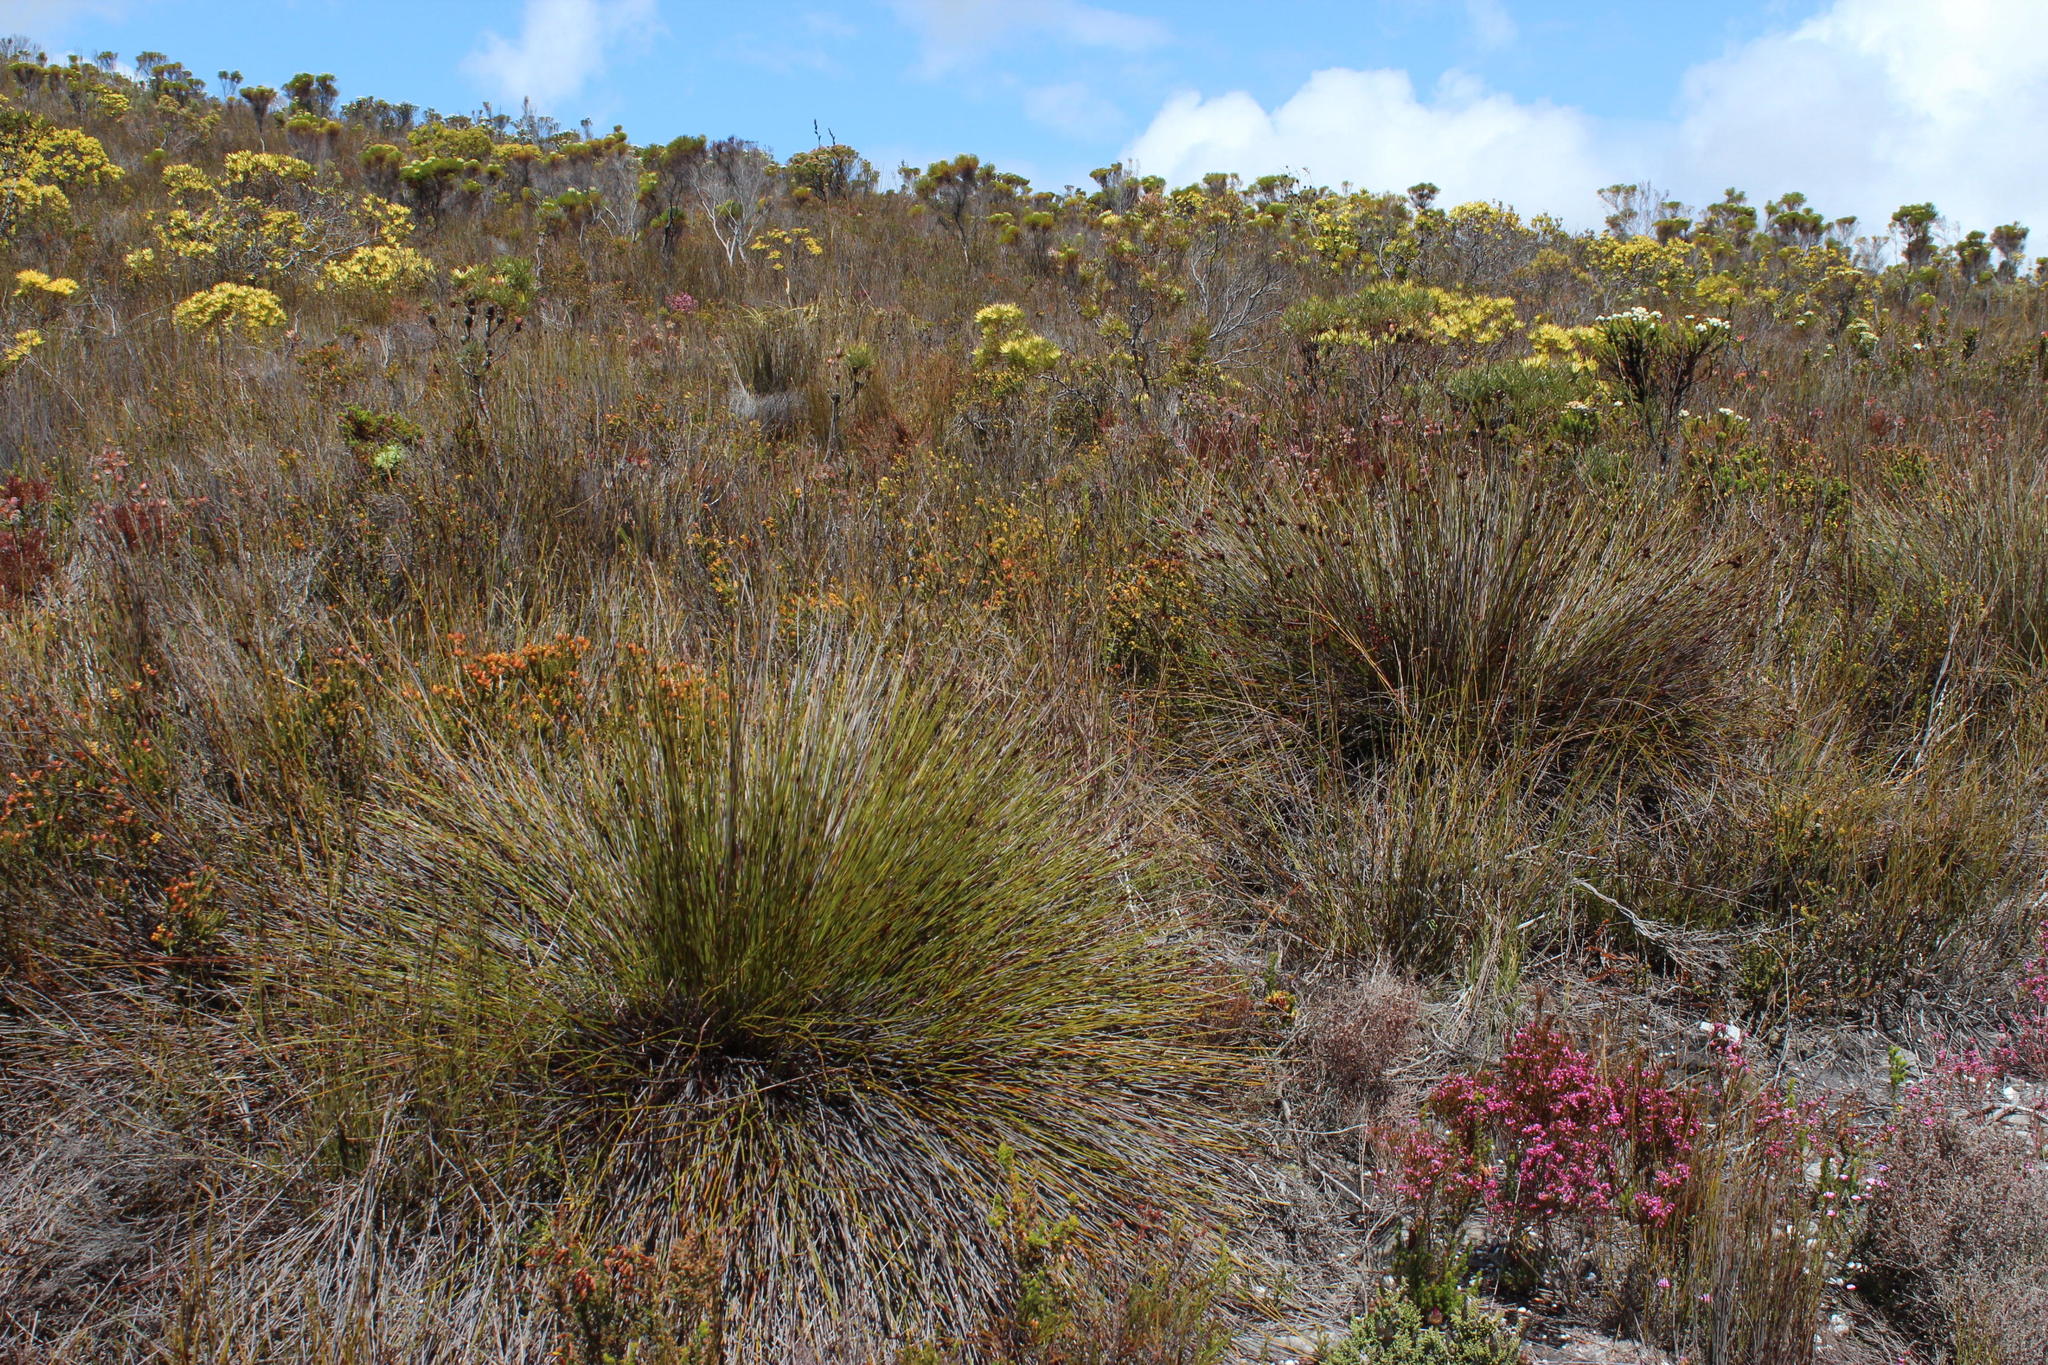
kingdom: Plantae
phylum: Tracheophyta
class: Liliopsida
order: Poales
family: Restionaceae
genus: Hypodiscus
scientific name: Hypodiscus aristatus
